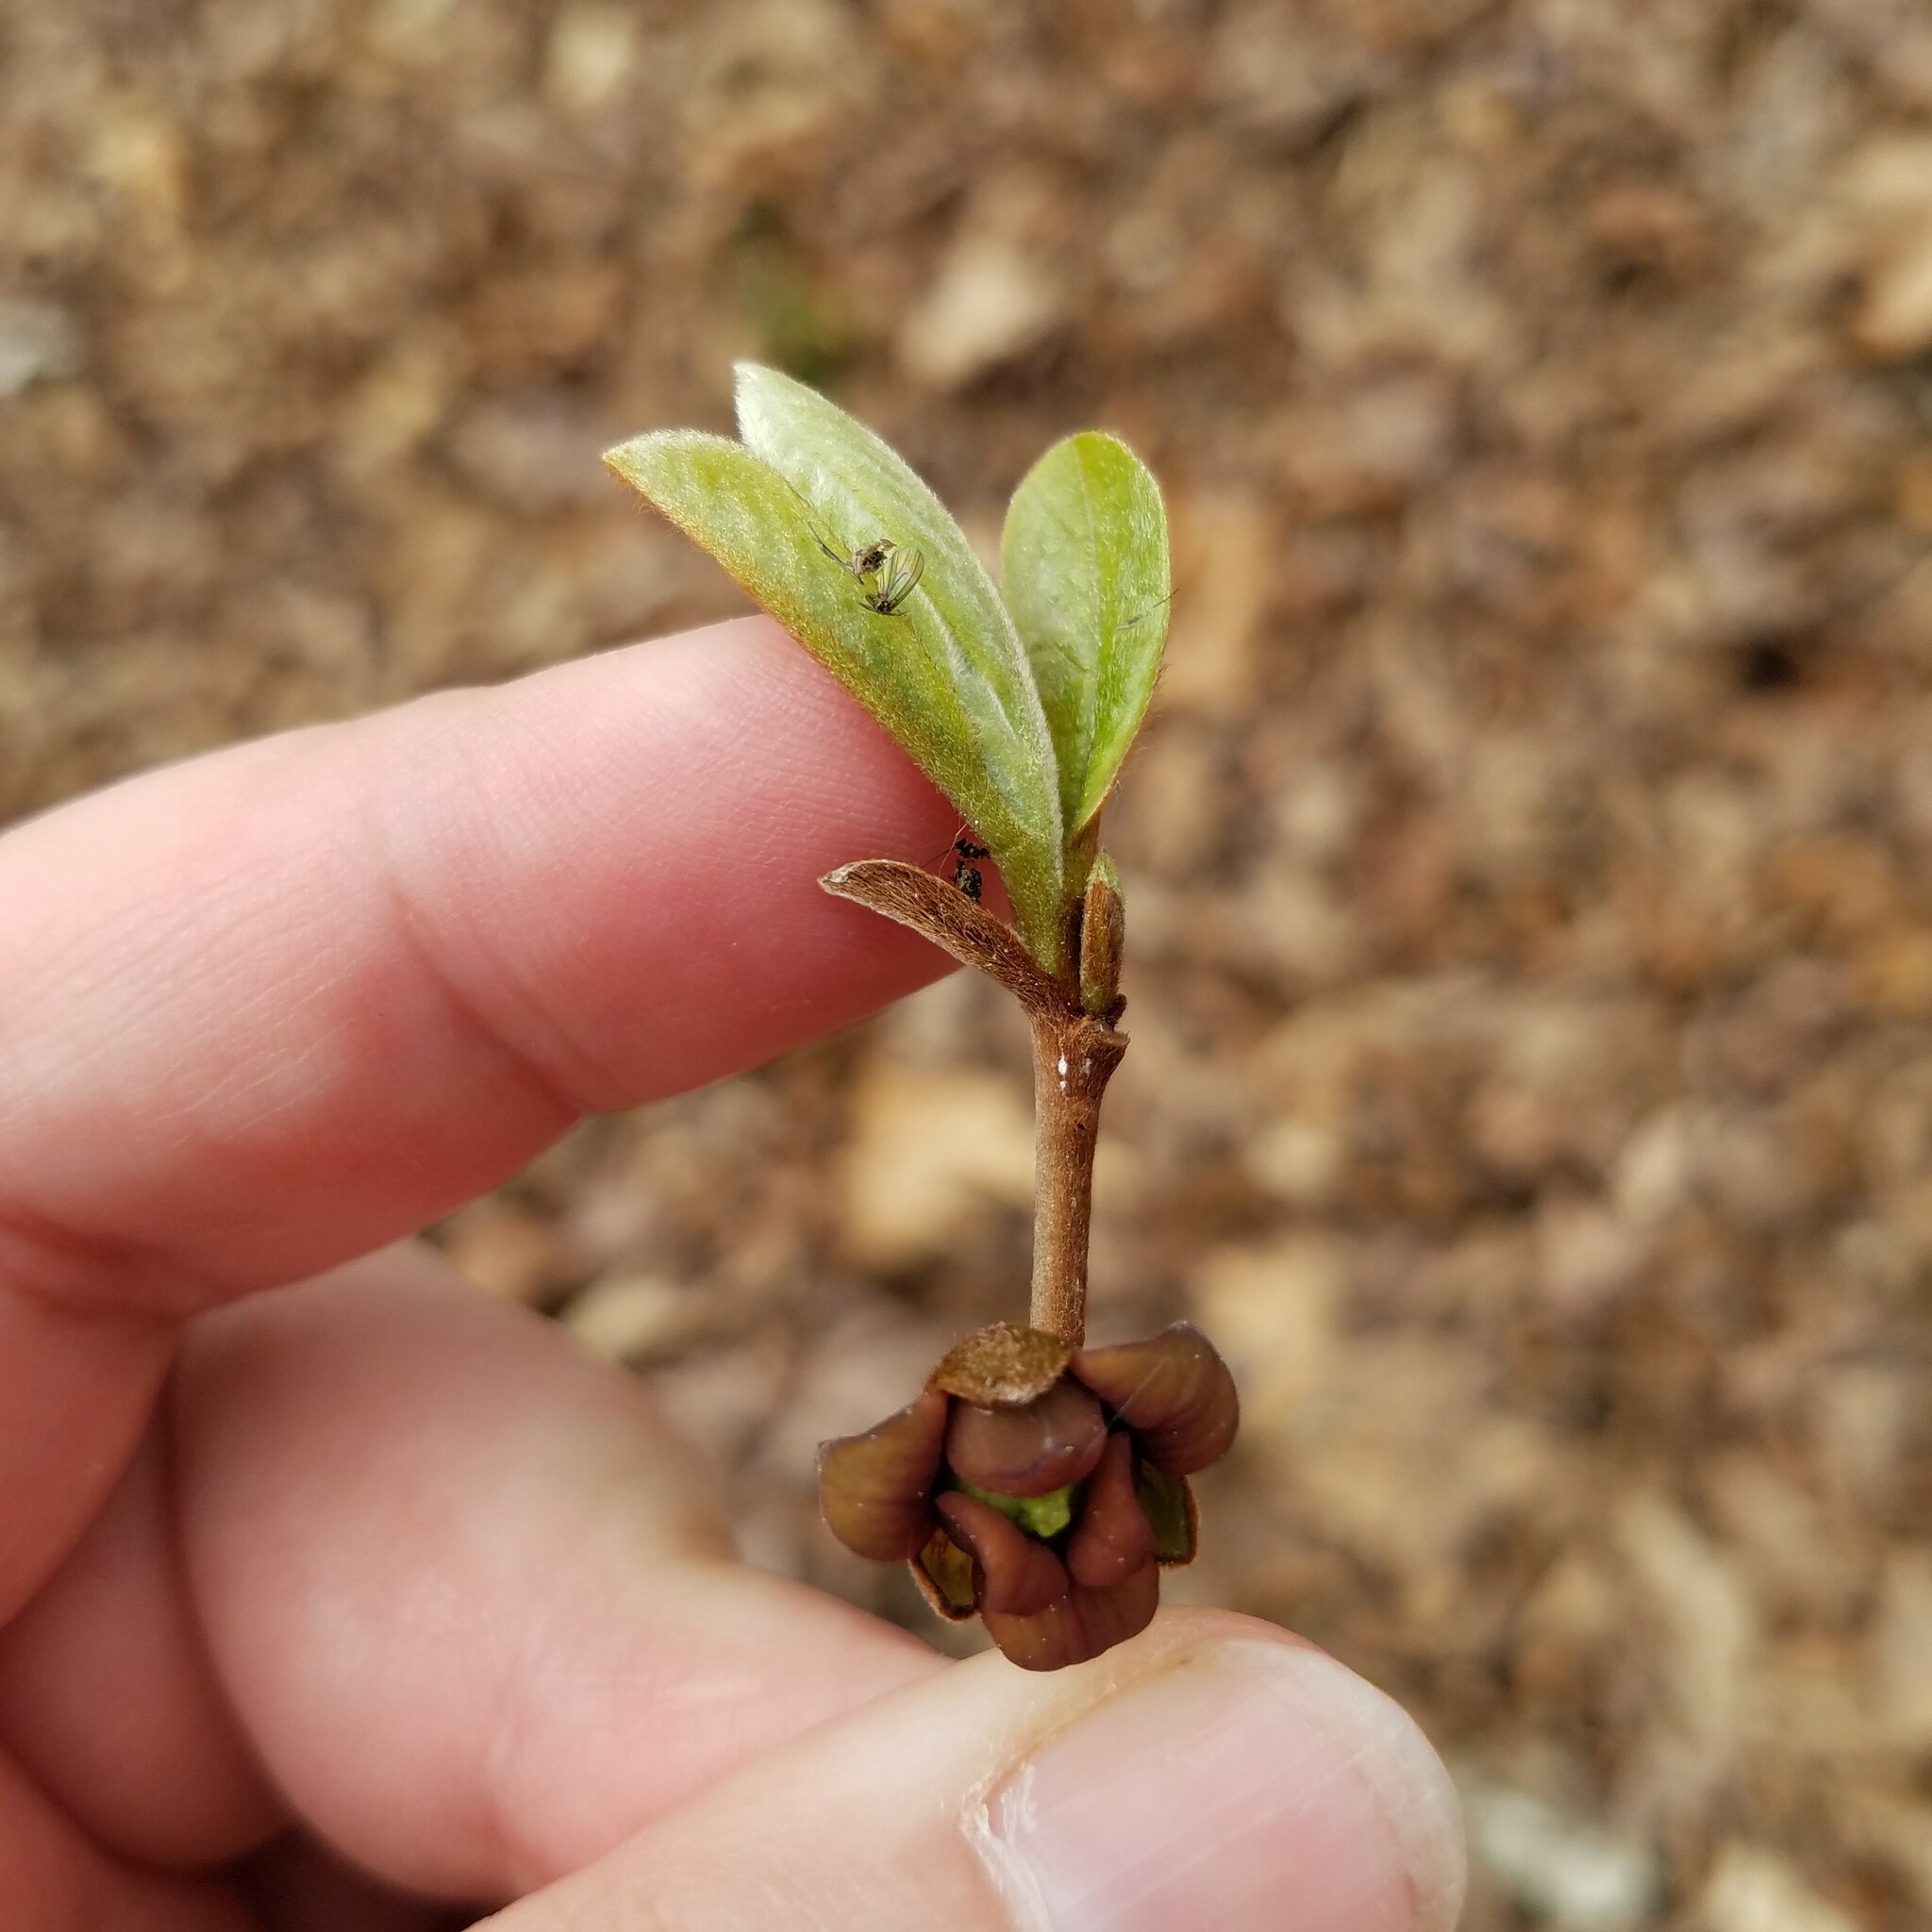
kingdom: Plantae
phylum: Tracheophyta
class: Magnoliopsida
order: Magnoliales
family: Annonaceae
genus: Asimina
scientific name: Asimina parviflora
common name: Dwarf pawpaw
